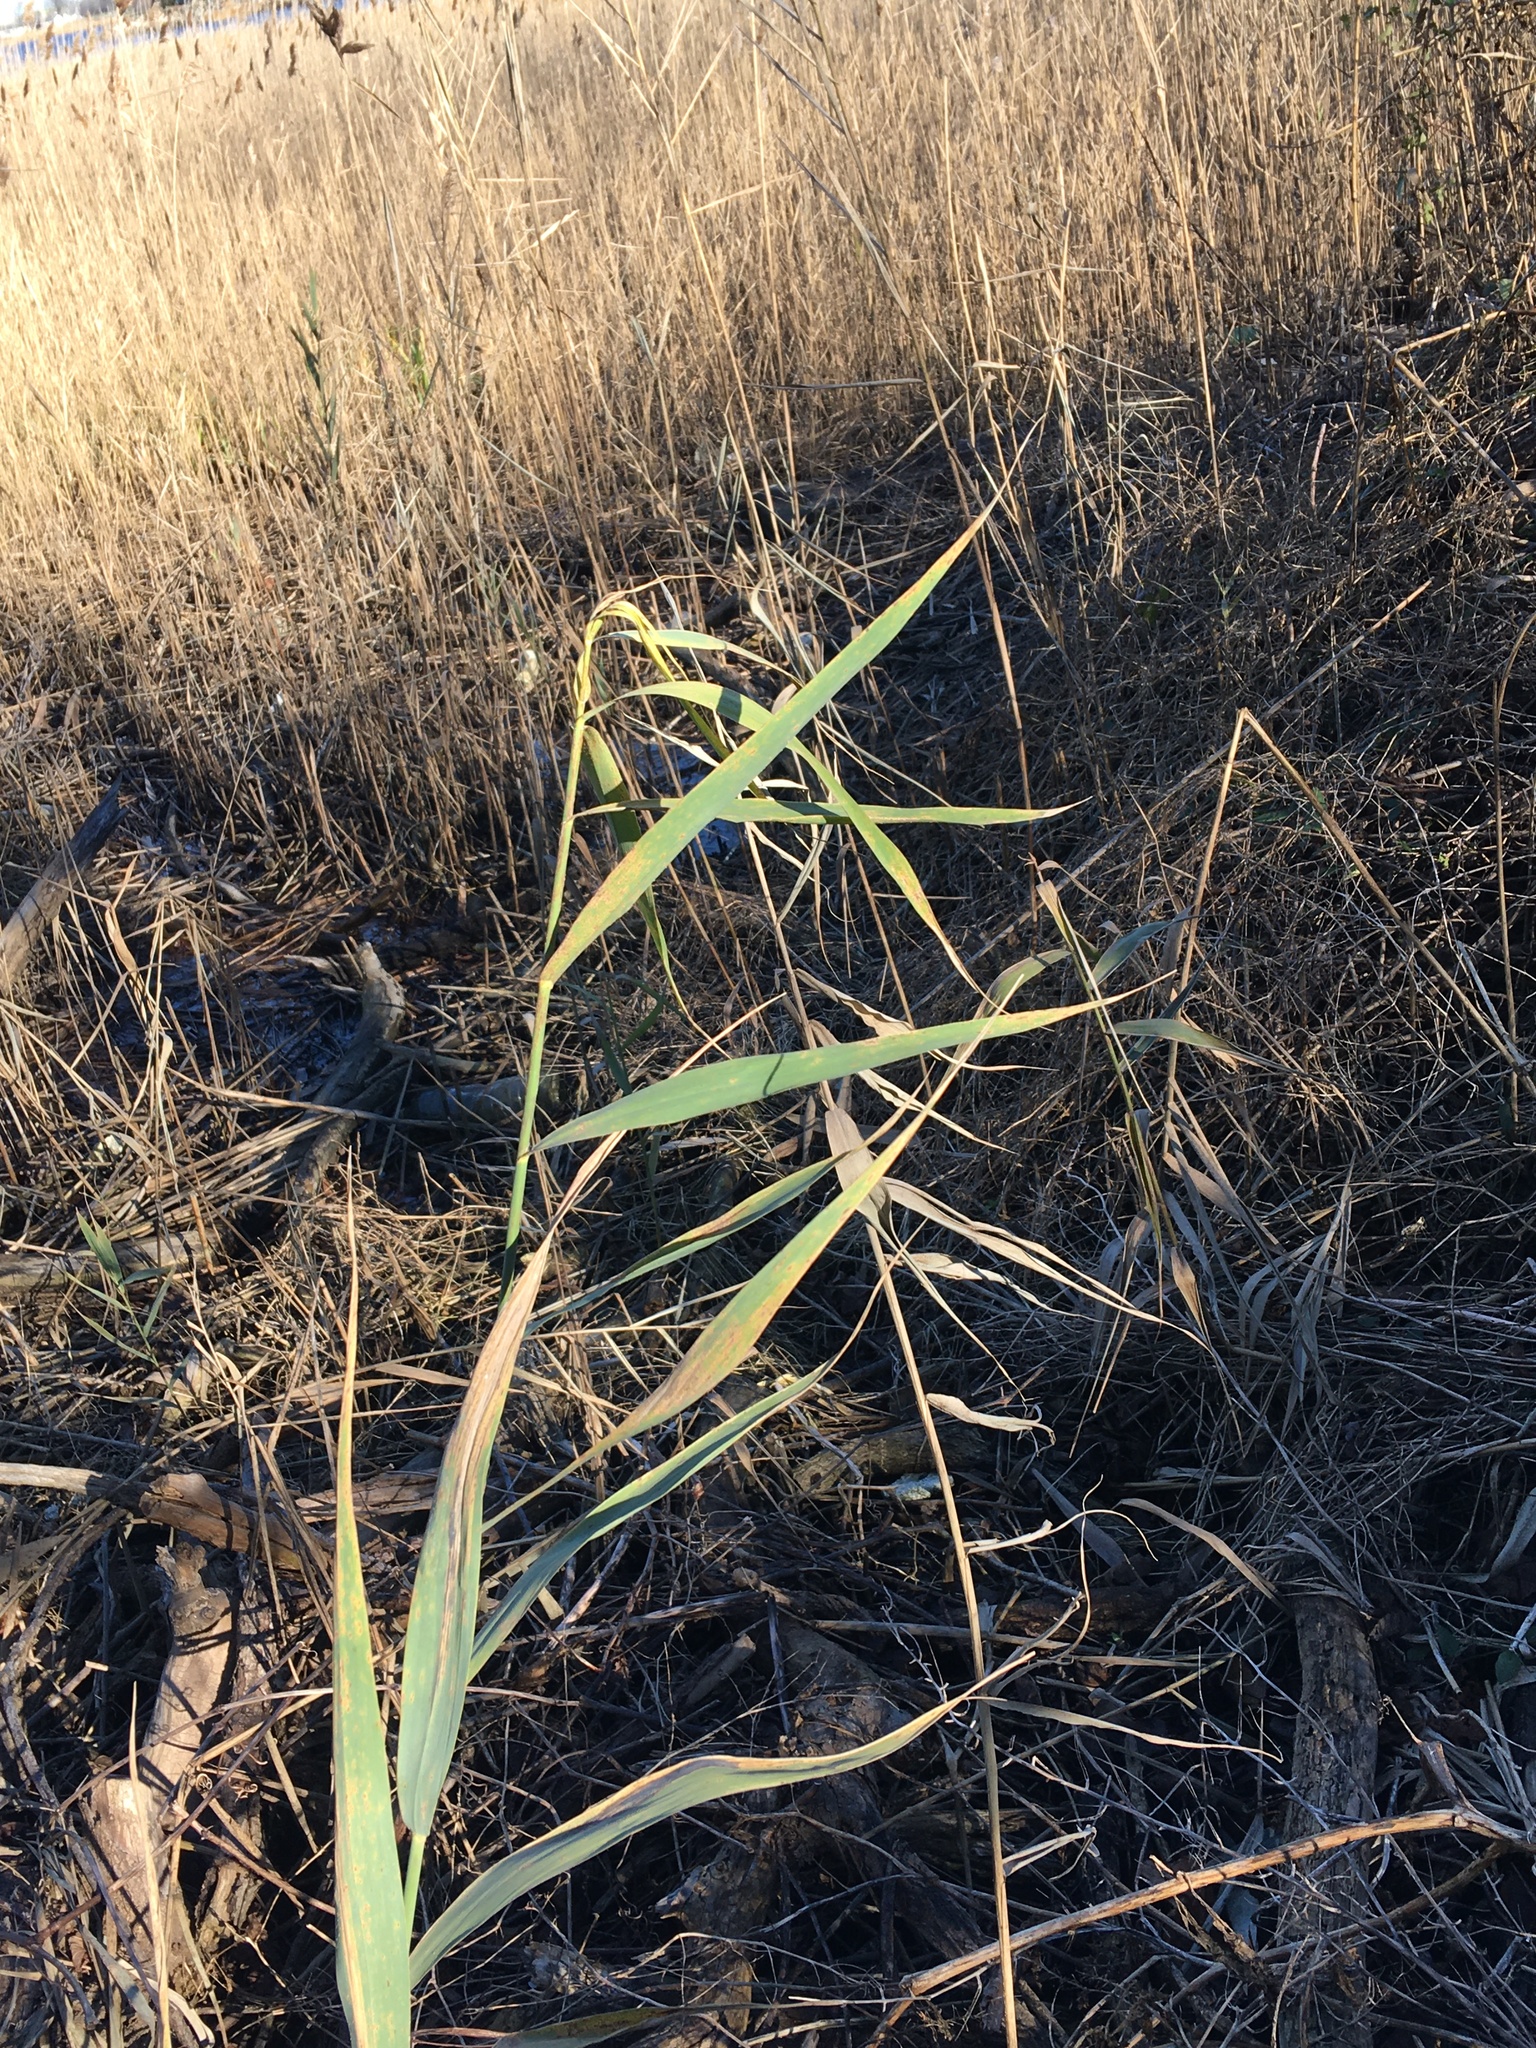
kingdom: Plantae
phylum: Tracheophyta
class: Liliopsida
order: Poales
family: Poaceae
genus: Phragmites
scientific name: Phragmites australis
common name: Common reed
